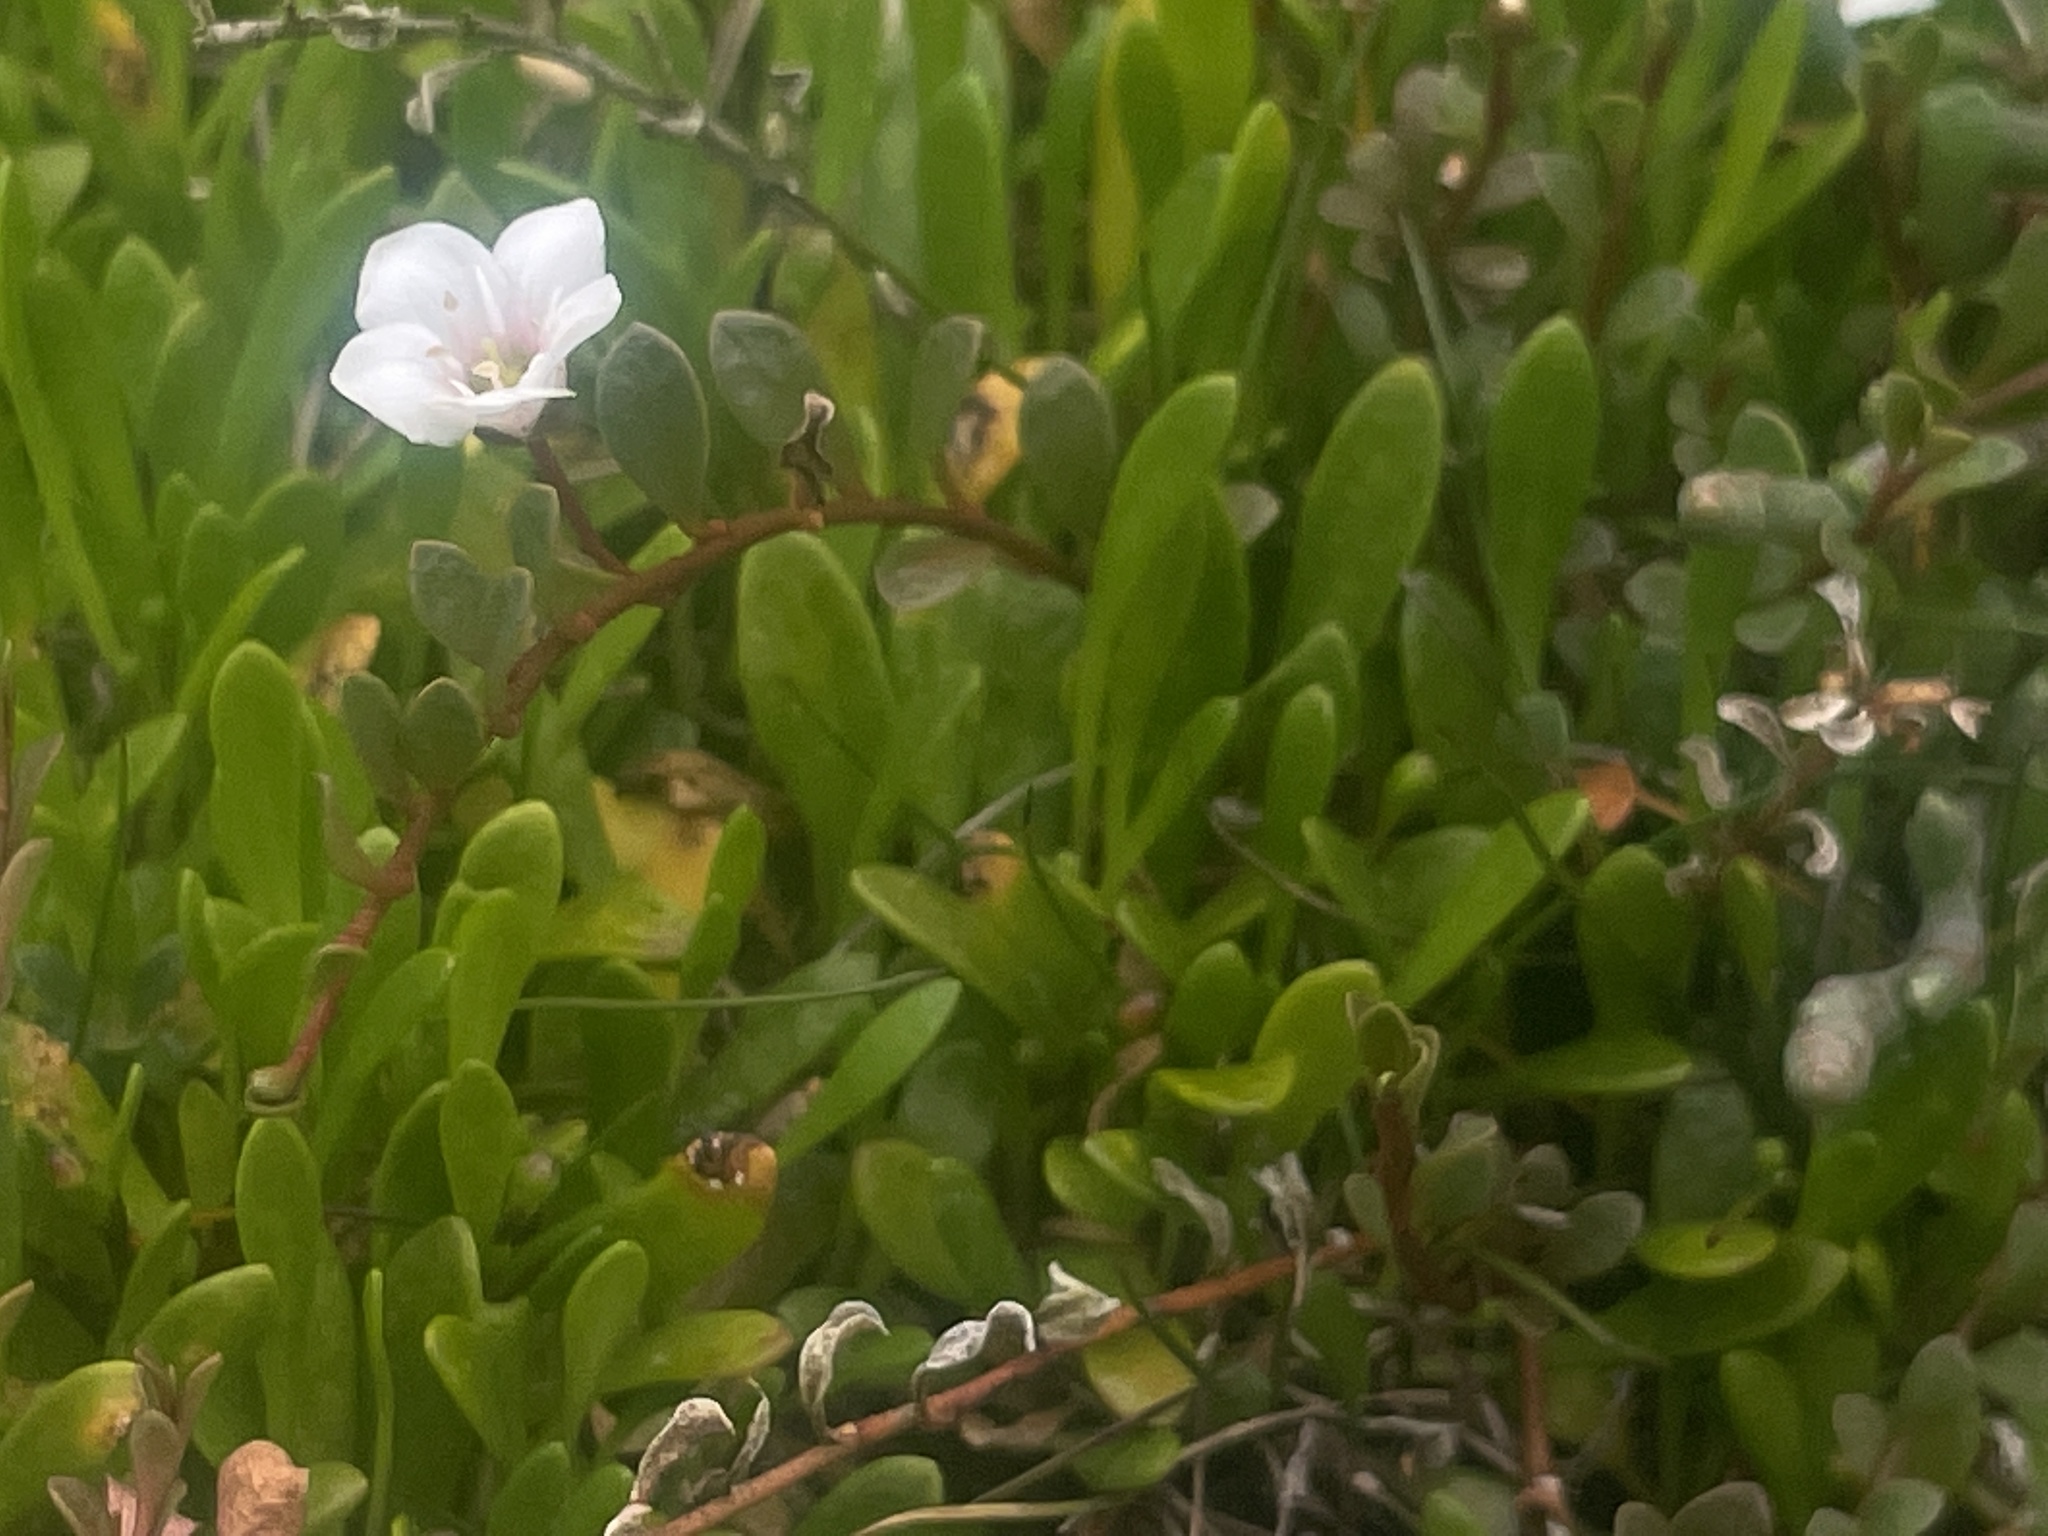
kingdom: Plantae
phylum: Tracheophyta
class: Magnoliopsida
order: Ericales
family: Primulaceae
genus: Samolus
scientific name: Samolus repens
